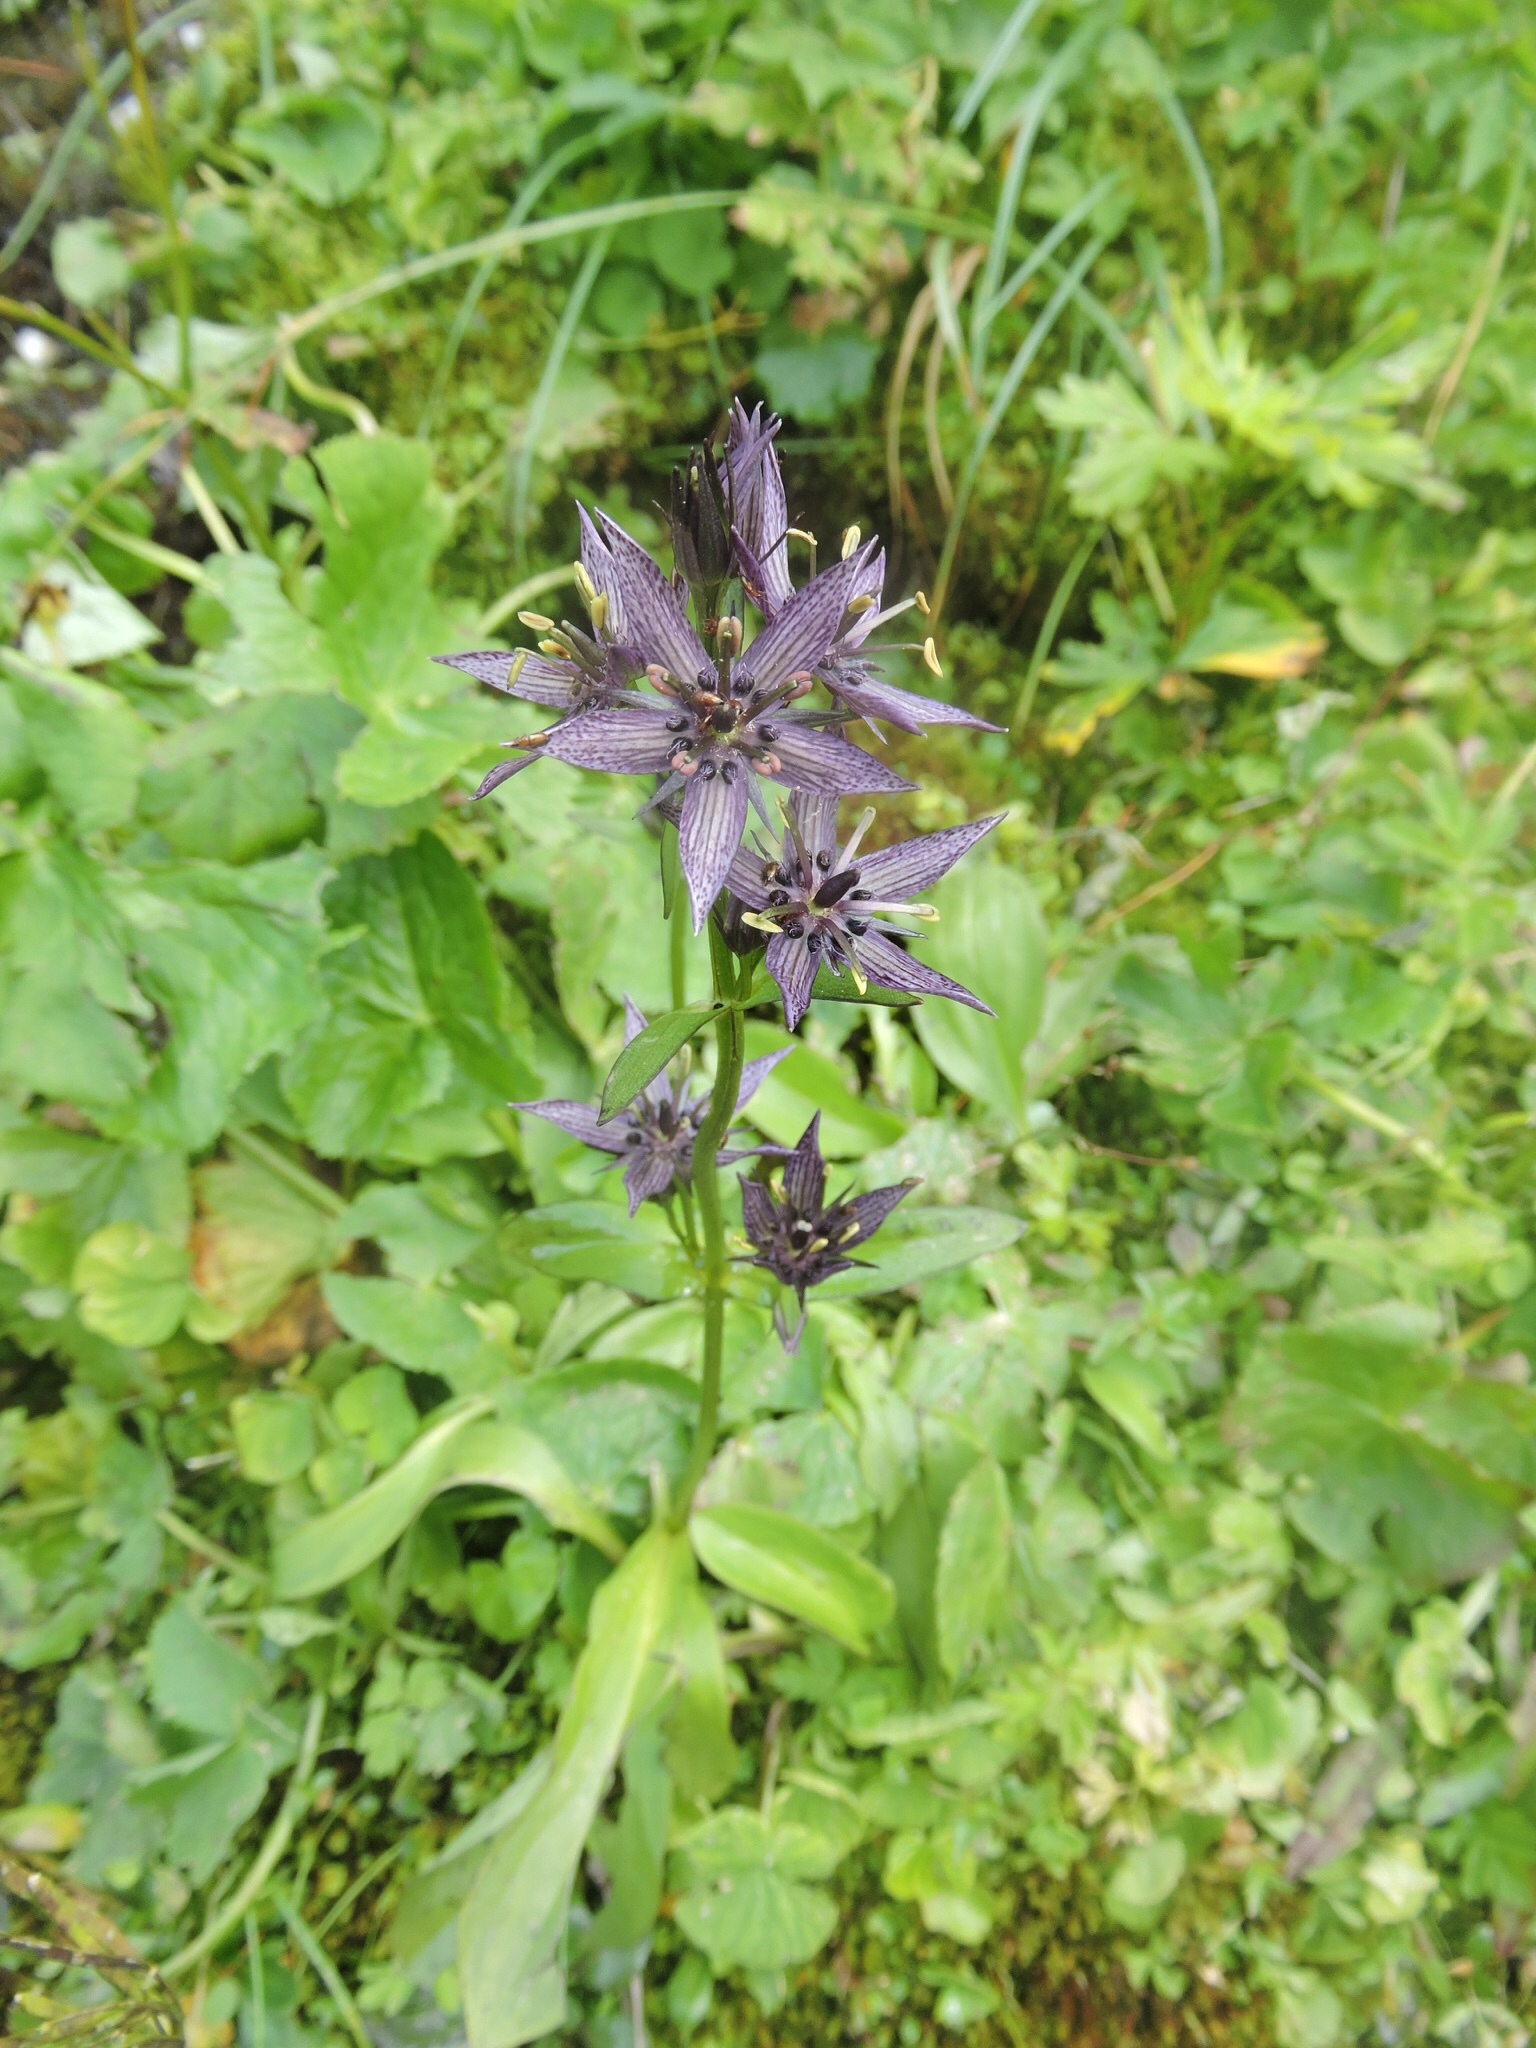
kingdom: Plantae
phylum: Tracheophyta
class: Magnoliopsida
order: Gentianales
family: Gentianaceae
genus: Swertia
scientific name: Swertia perennis
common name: Alpine bog swertia
